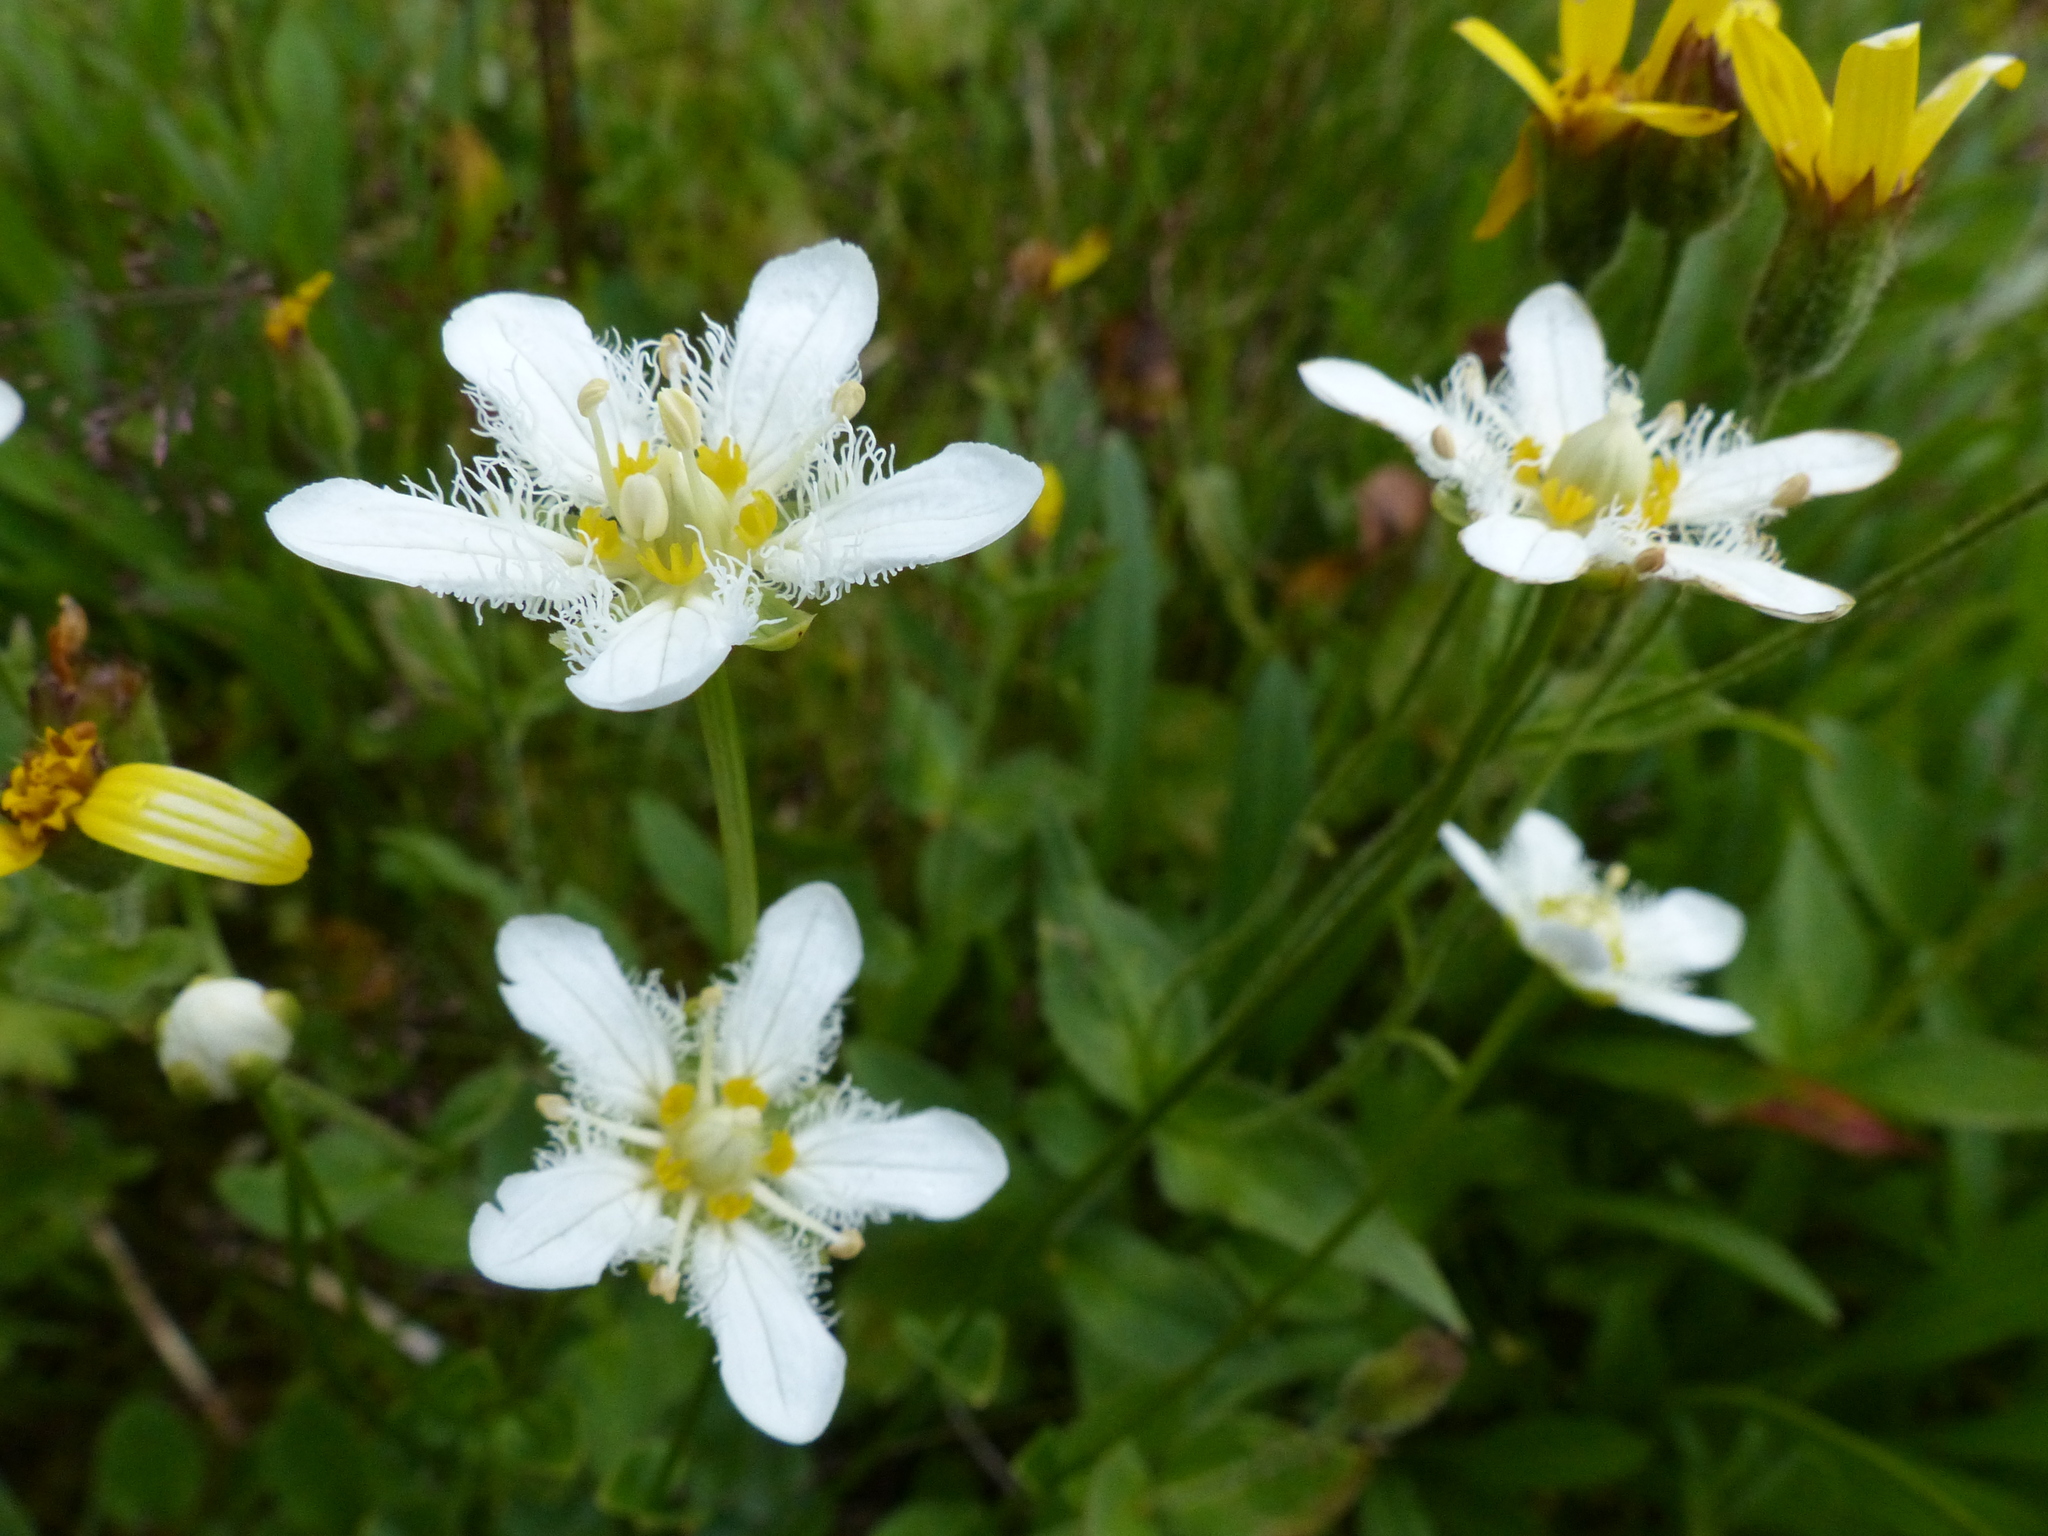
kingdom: Plantae
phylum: Tracheophyta
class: Magnoliopsida
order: Celastrales
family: Parnassiaceae
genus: Parnassia
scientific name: Parnassia fimbriata
